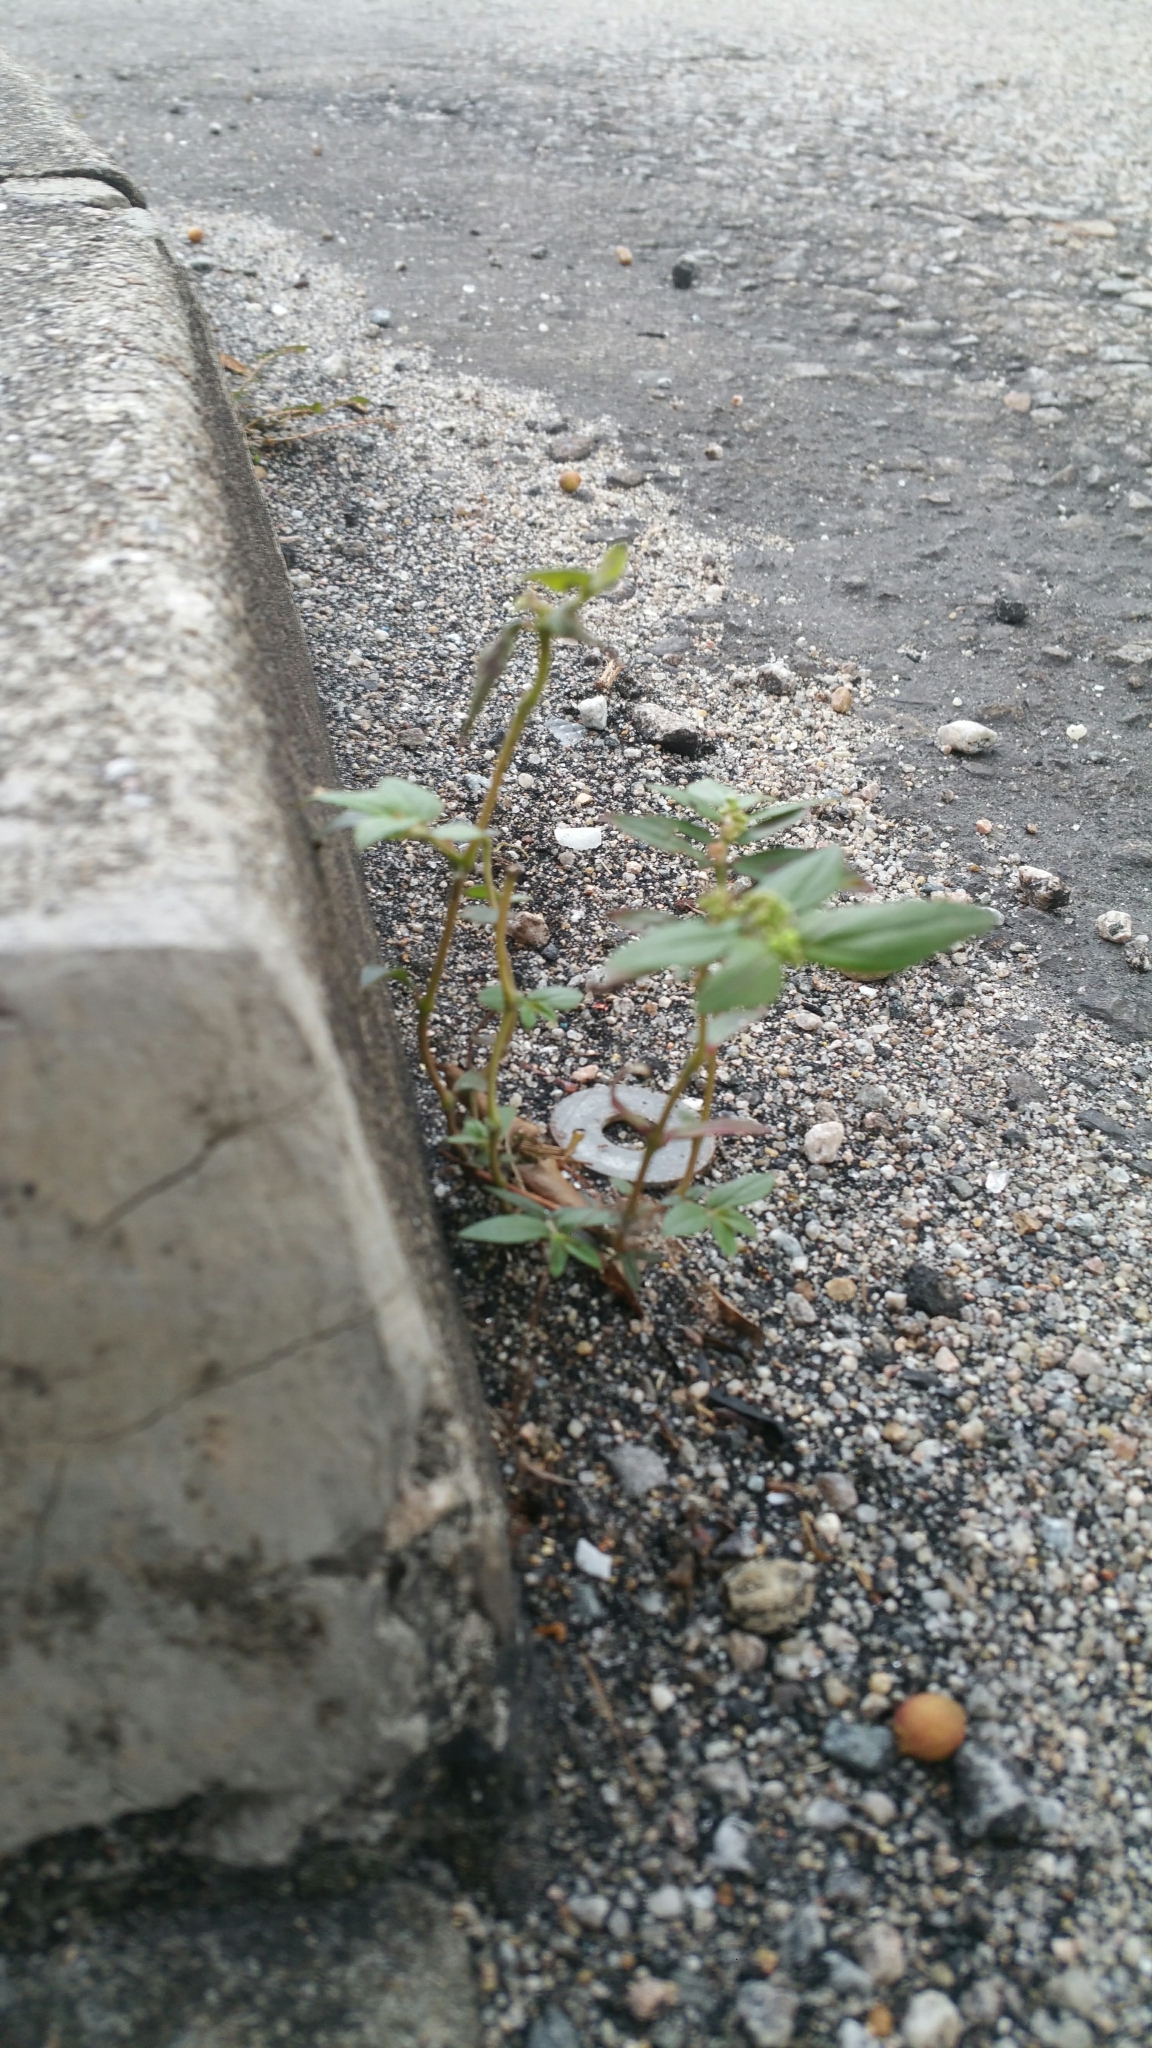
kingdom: Plantae
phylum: Tracheophyta
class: Magnoliopsida
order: Malpighiales
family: Euphorbiaceae
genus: Euphorbia
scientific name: Euphorbia hirta
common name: Pillpod sandmat
